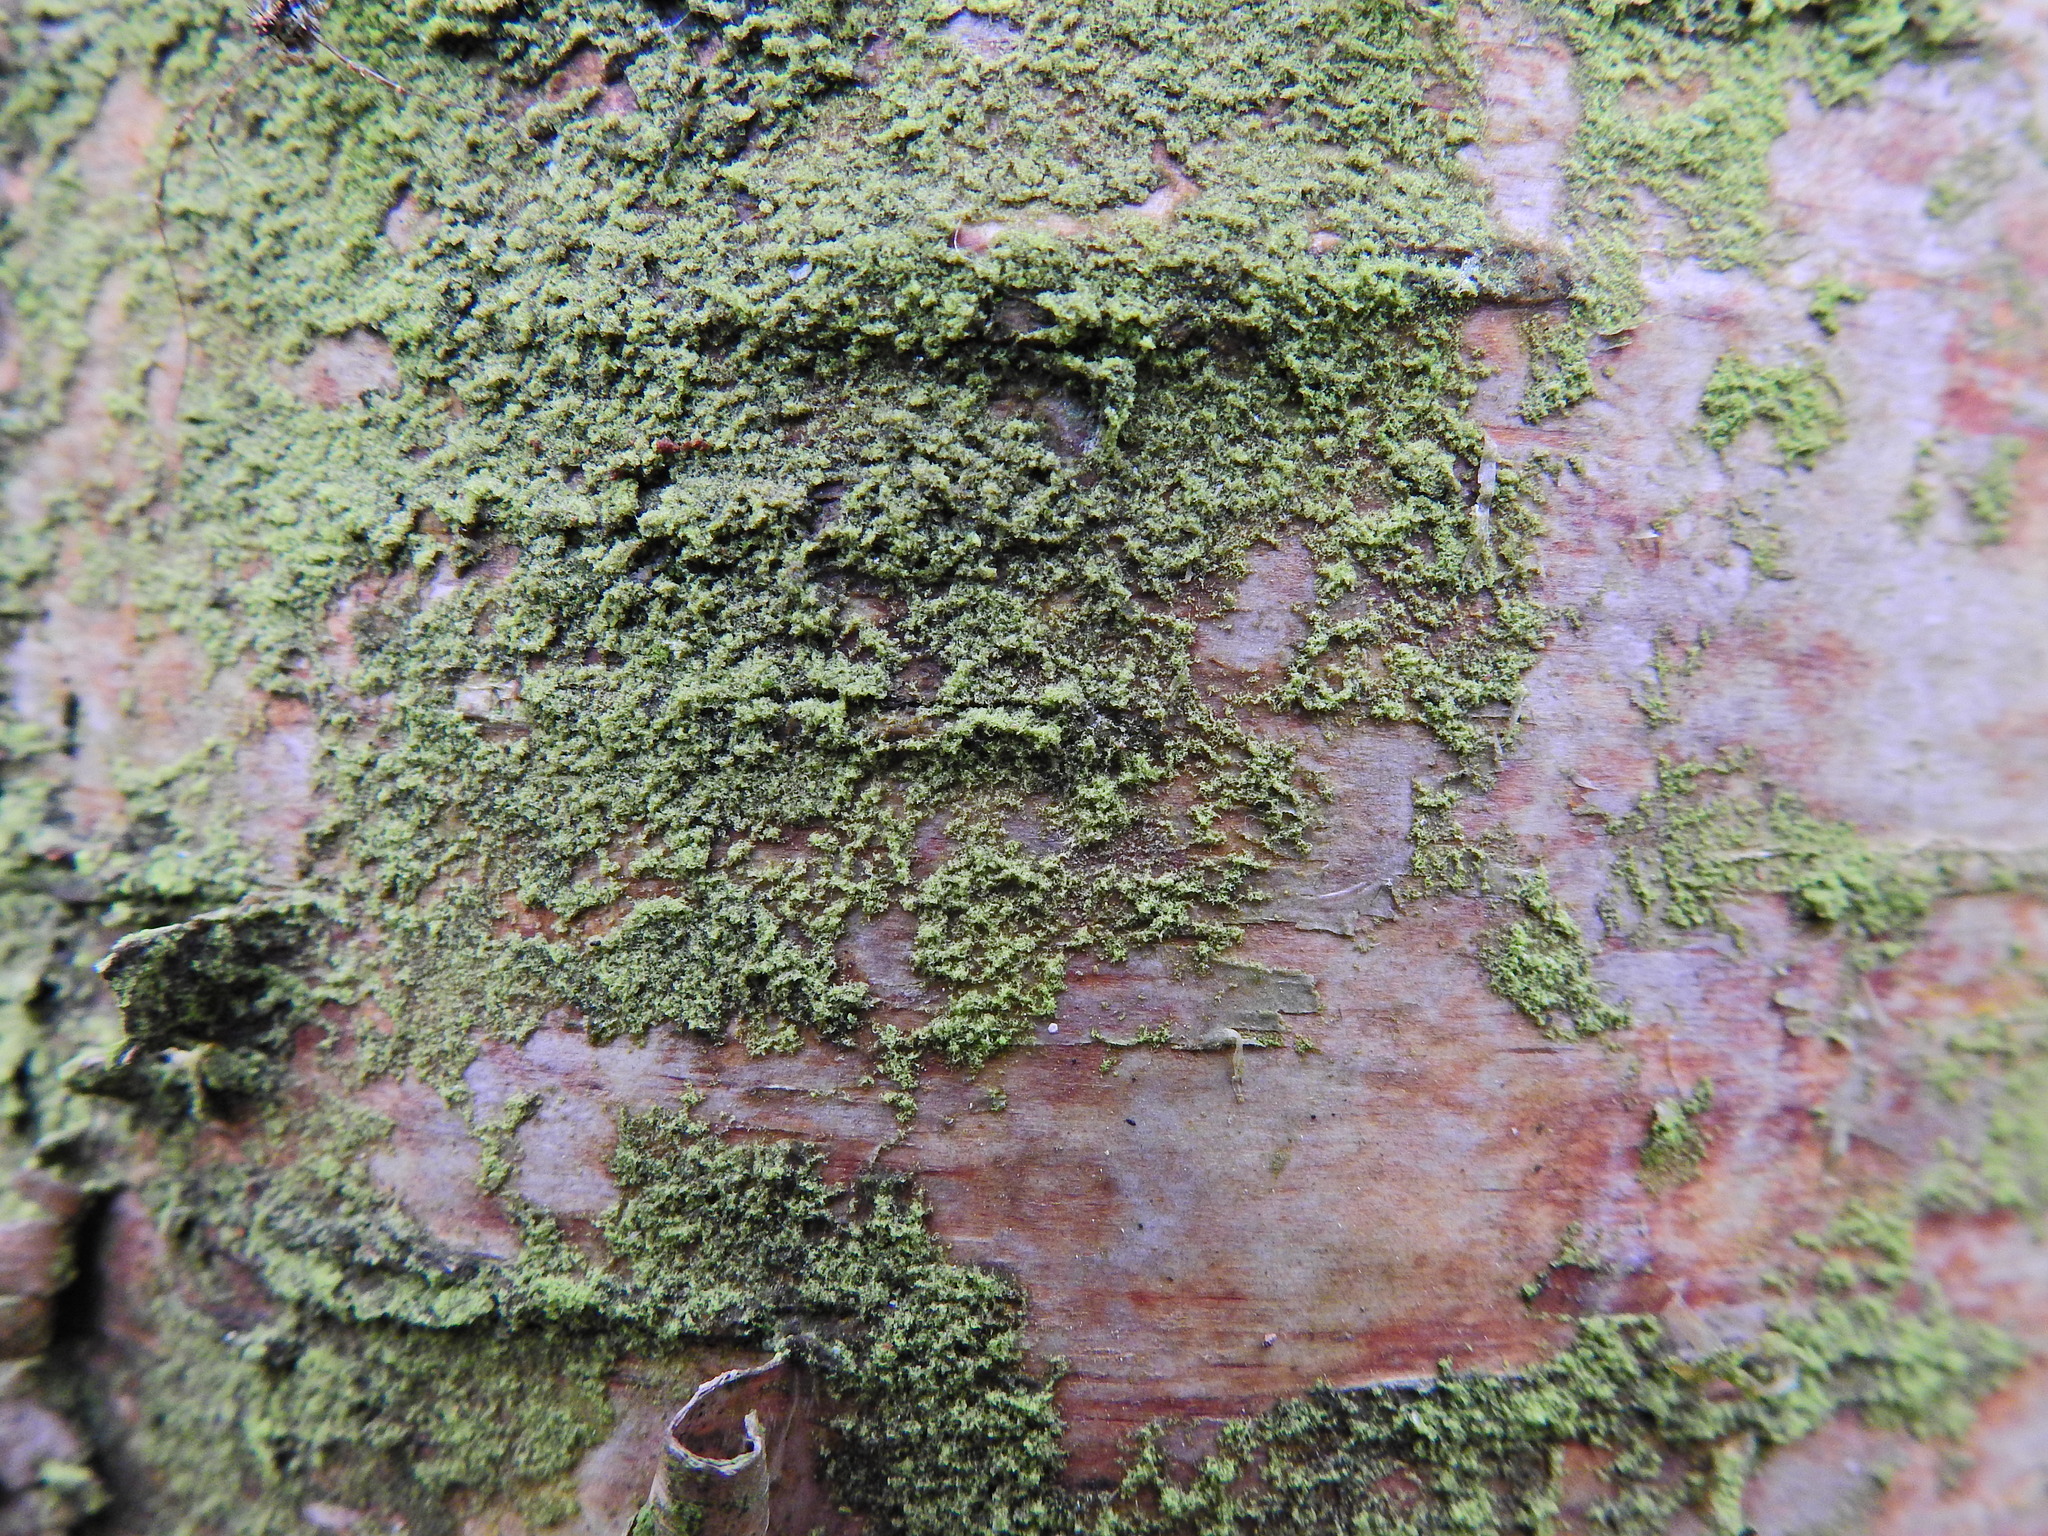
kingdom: Plantae
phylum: Marchantiophyta
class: Jungermanniopsida
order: Porellales
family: Frullaniaceae
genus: Frullania
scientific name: Frullania dilatata
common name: Dilated scalewort
